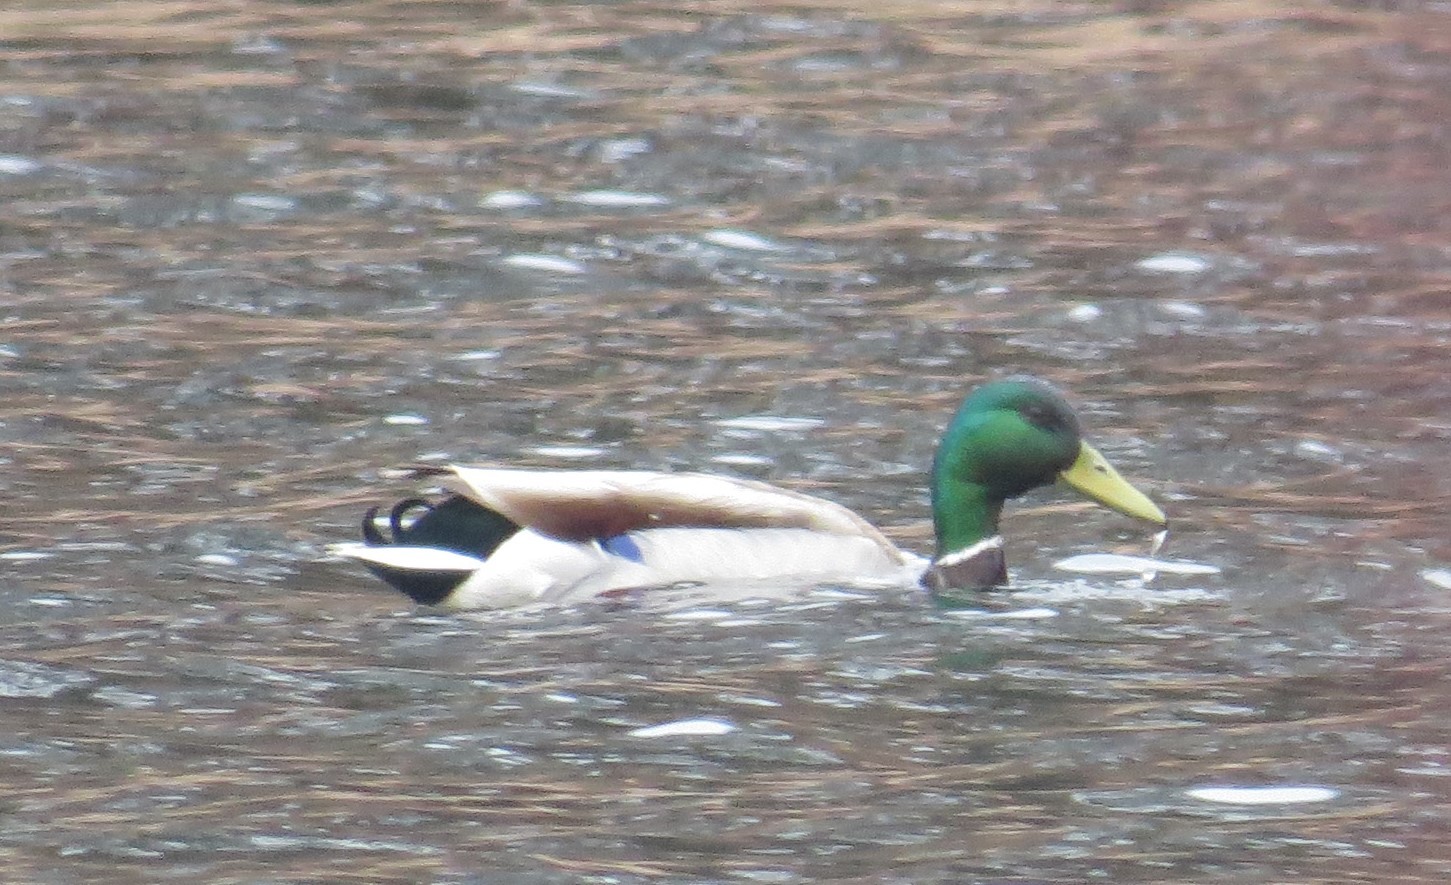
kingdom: Animalia
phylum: Chordata
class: Aves
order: Anseriformes
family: Anatidae
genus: Anas
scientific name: Anas platyrhynchos
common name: Mallard
